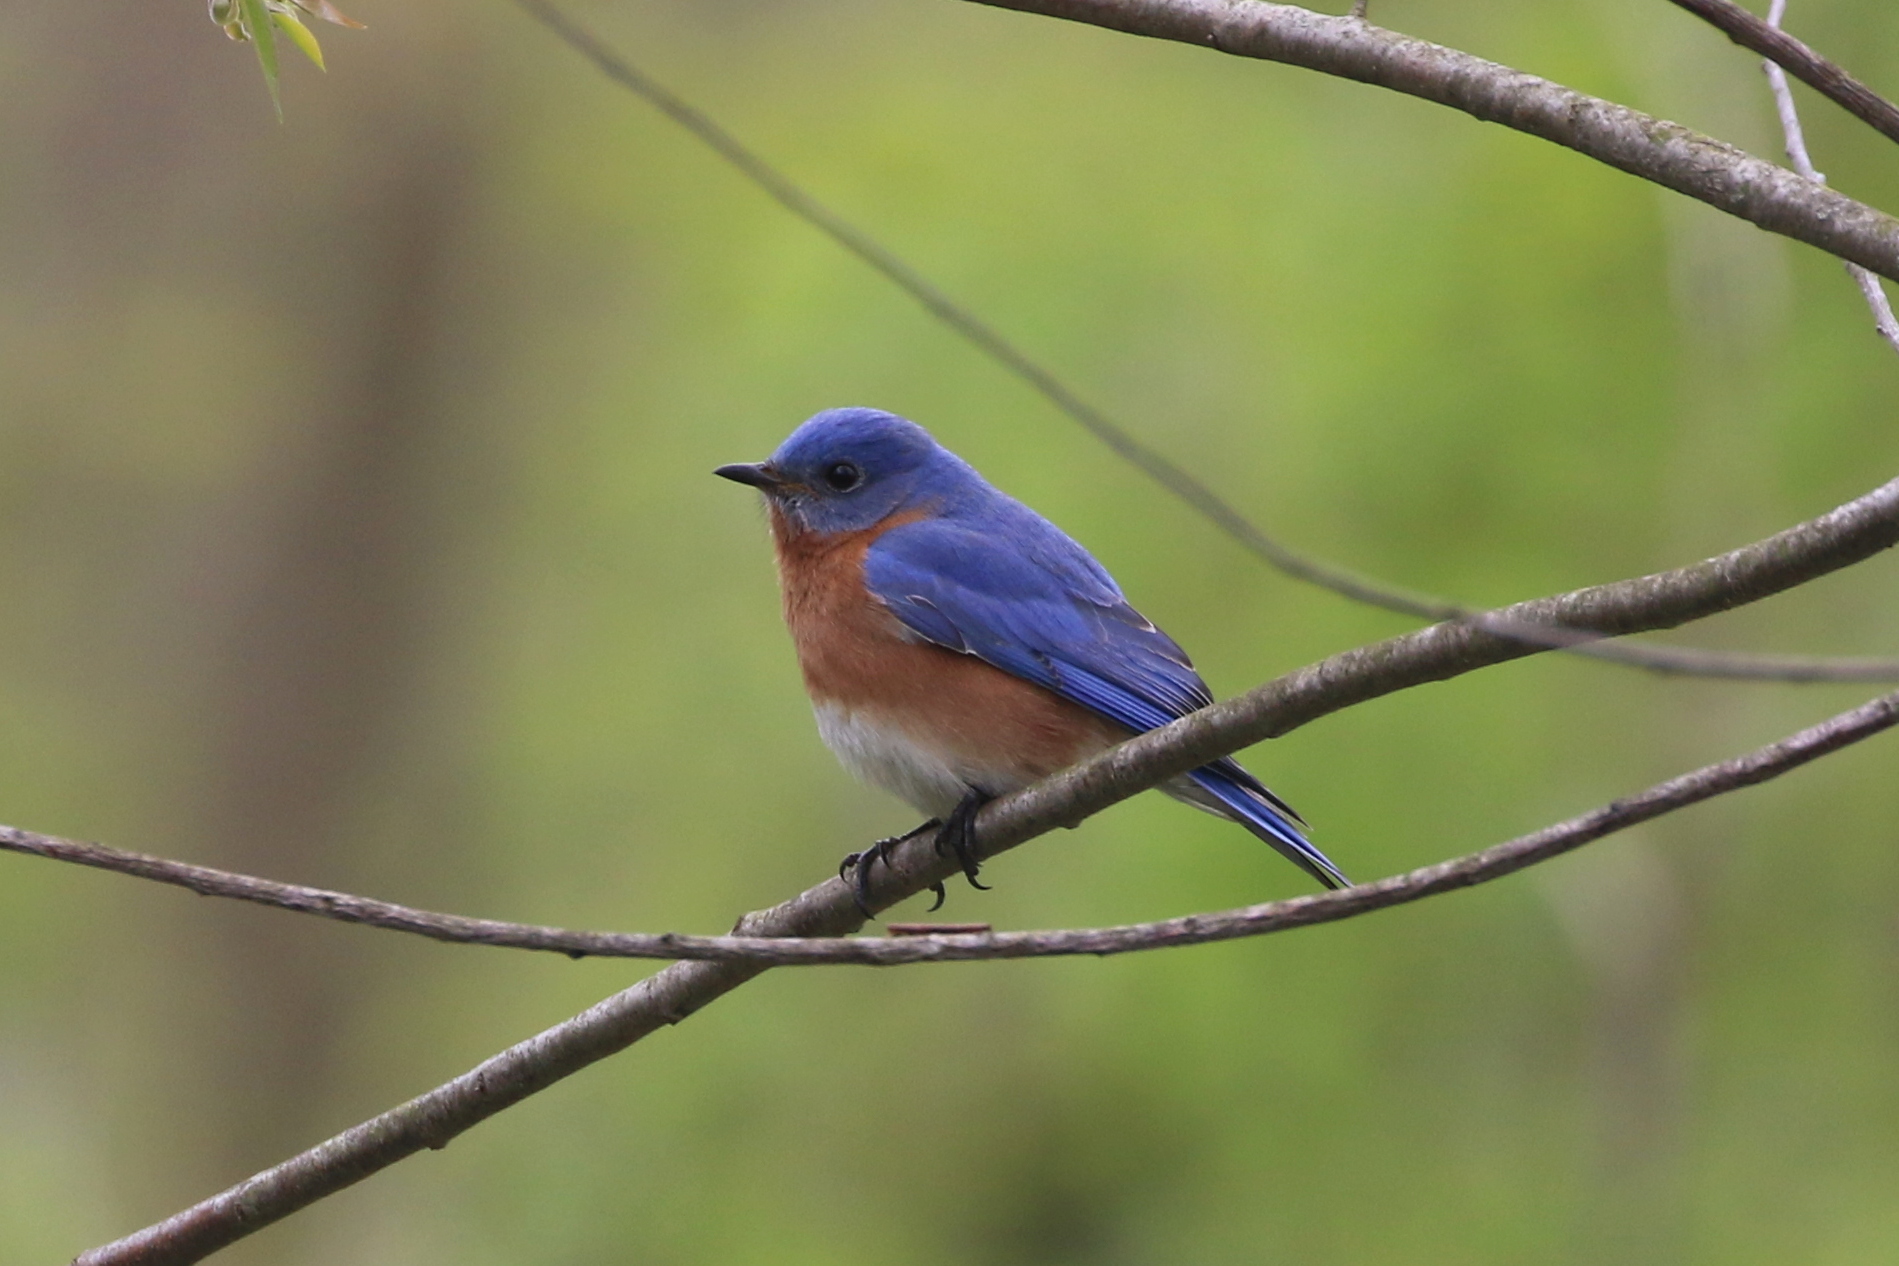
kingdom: Animalia
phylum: Chordata
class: Aves
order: Passeriformes
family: Turdidae
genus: Sialia
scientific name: Sialia sialis
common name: Eastern bluebird
